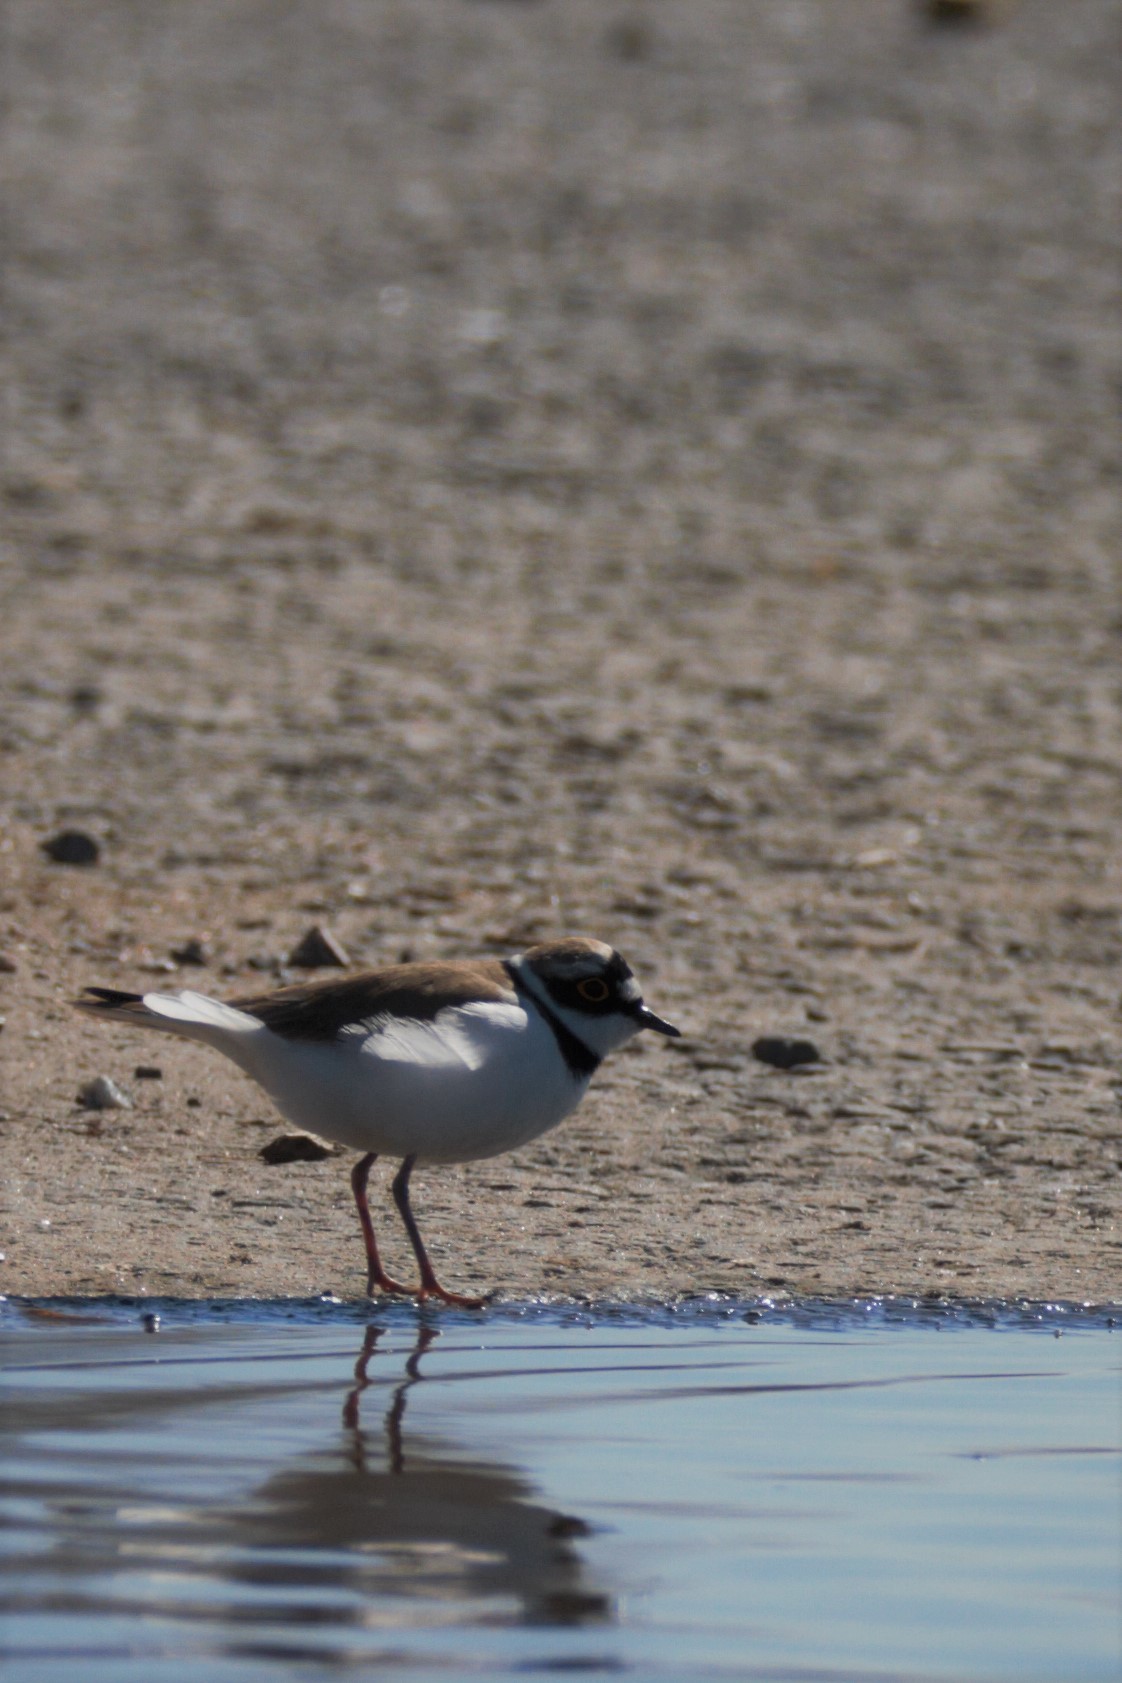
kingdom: Animalia
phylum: Chordata
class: Aves
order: Charadriiformes
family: Charadriidae
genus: Charadrius
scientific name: Charadrius dubius
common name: Little ringed plover
